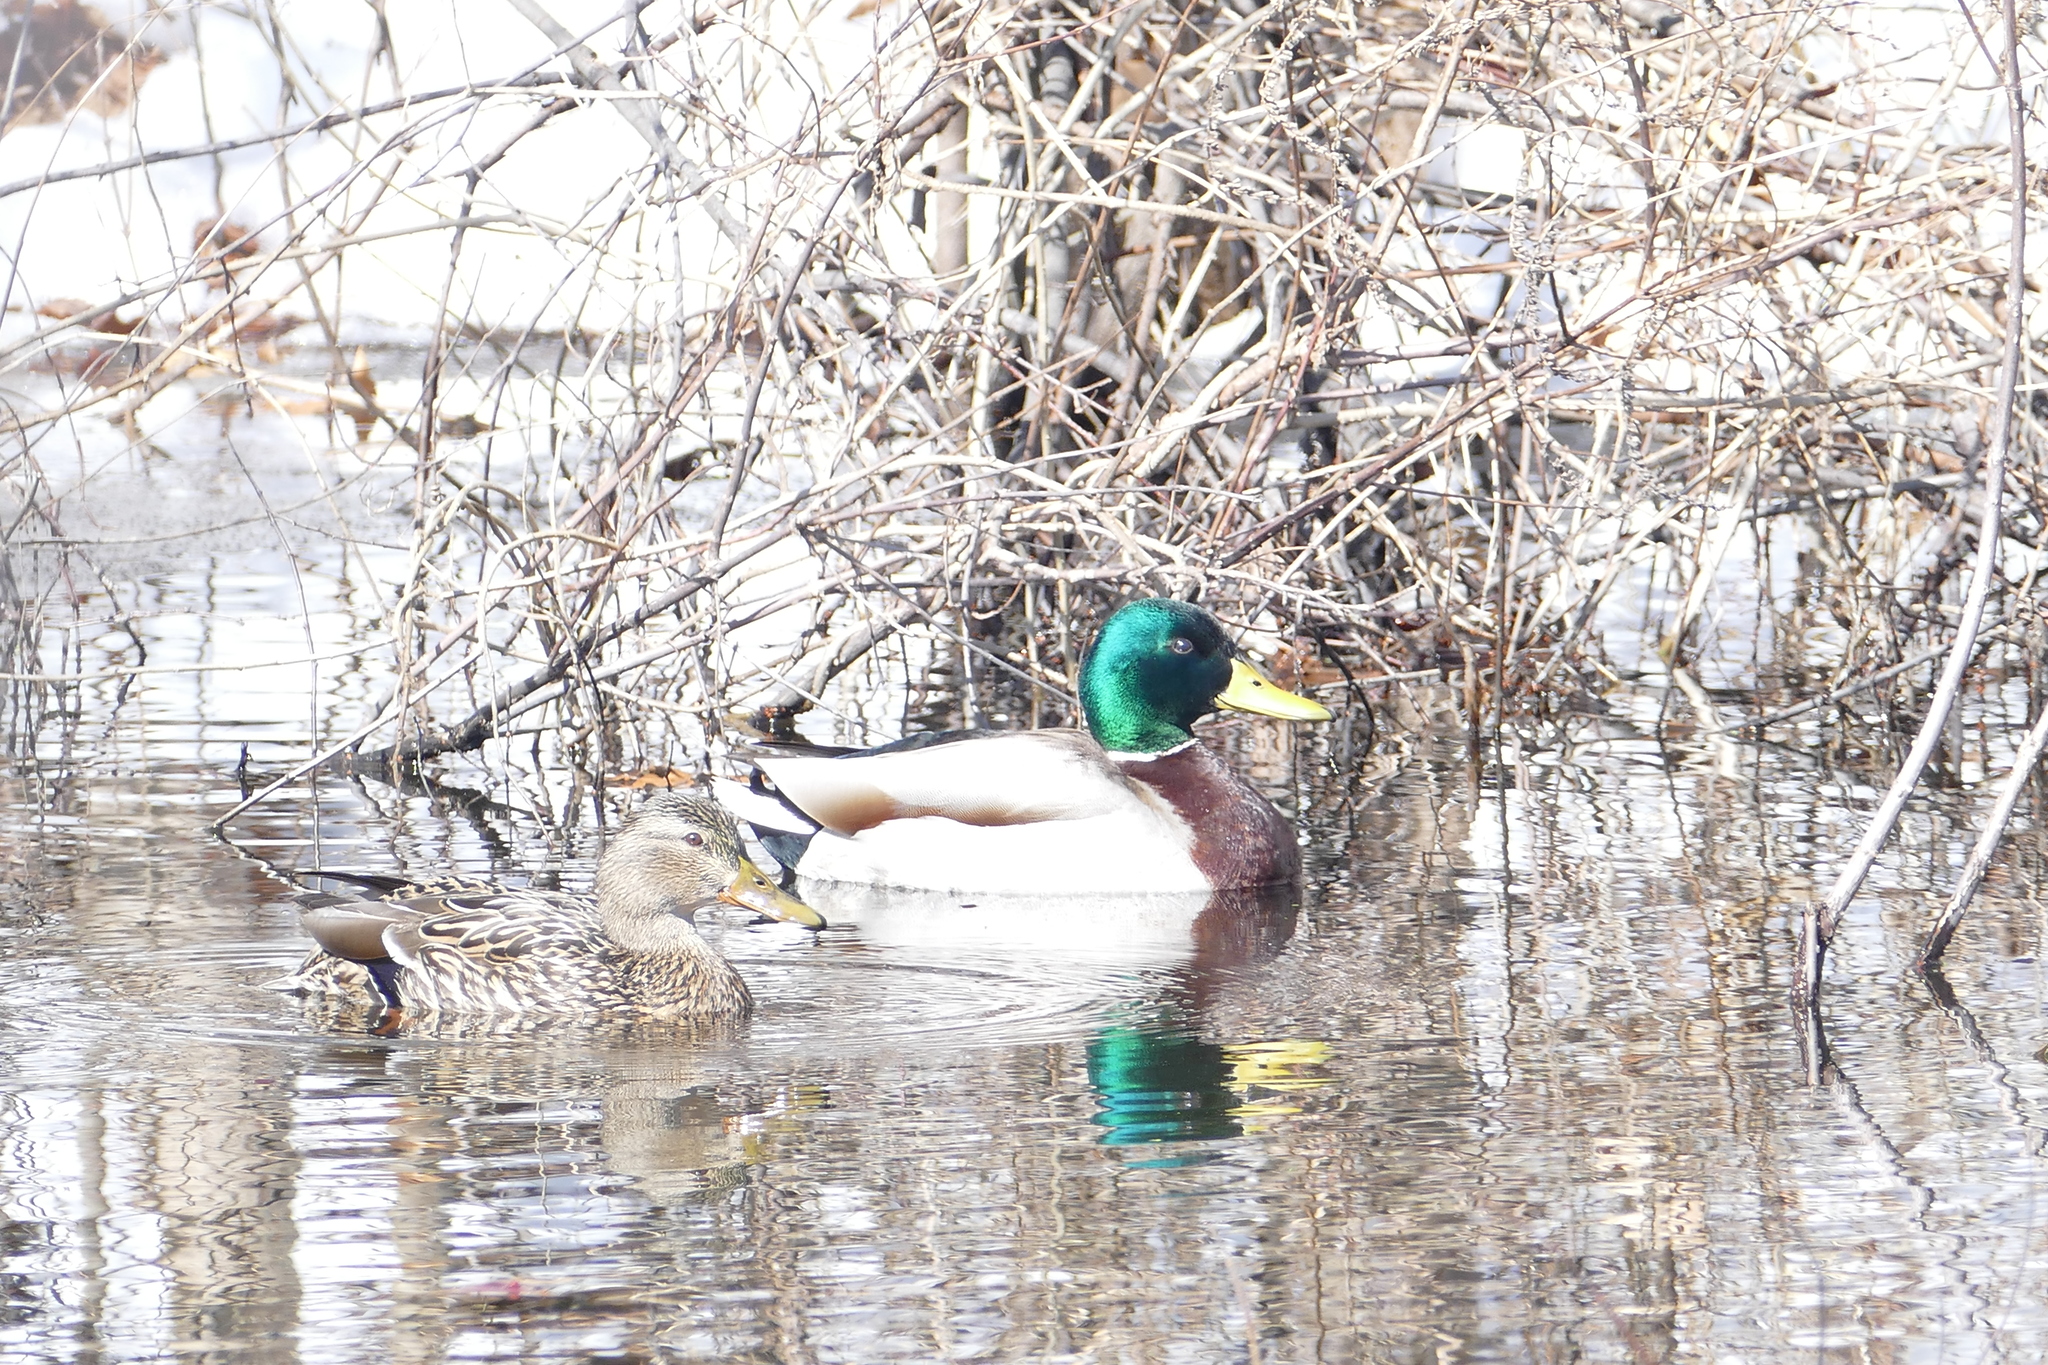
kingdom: Animalia
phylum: Chordata
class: Aves
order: Anseriformes
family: Anatidae
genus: Anas
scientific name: Anas platyrhynchos
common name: Mallard
